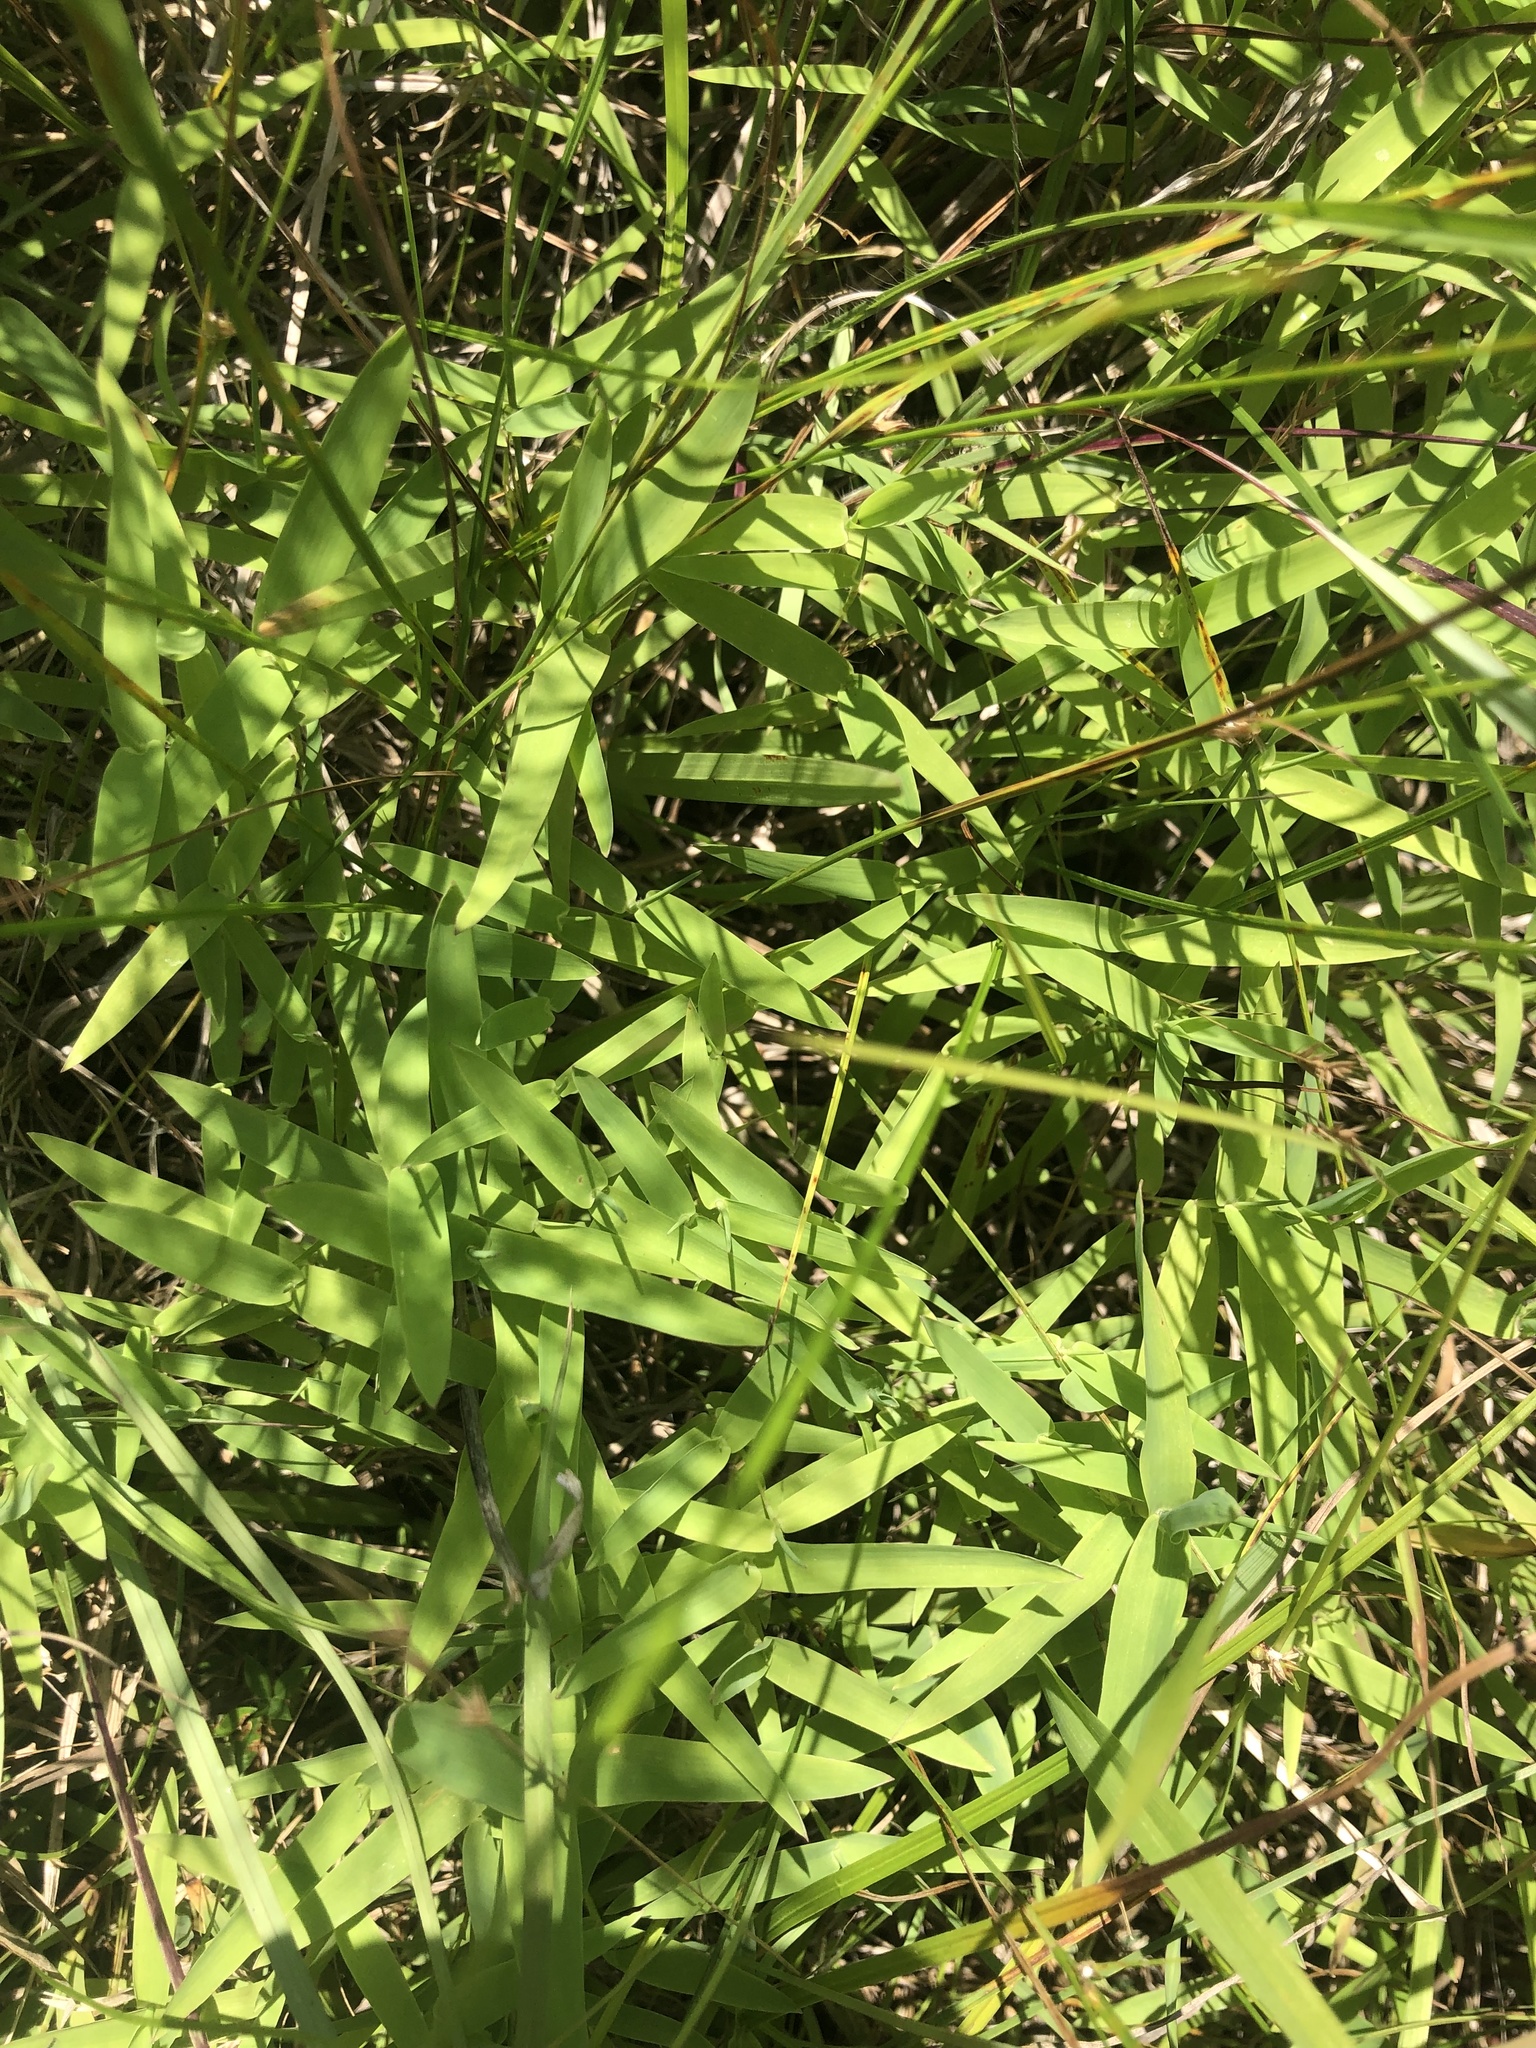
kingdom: Plantae
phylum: Tracheophyta
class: Liliopsida
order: Poales
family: Poaceae
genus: Gymnopogon
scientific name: Gymnopogon brevifolius
